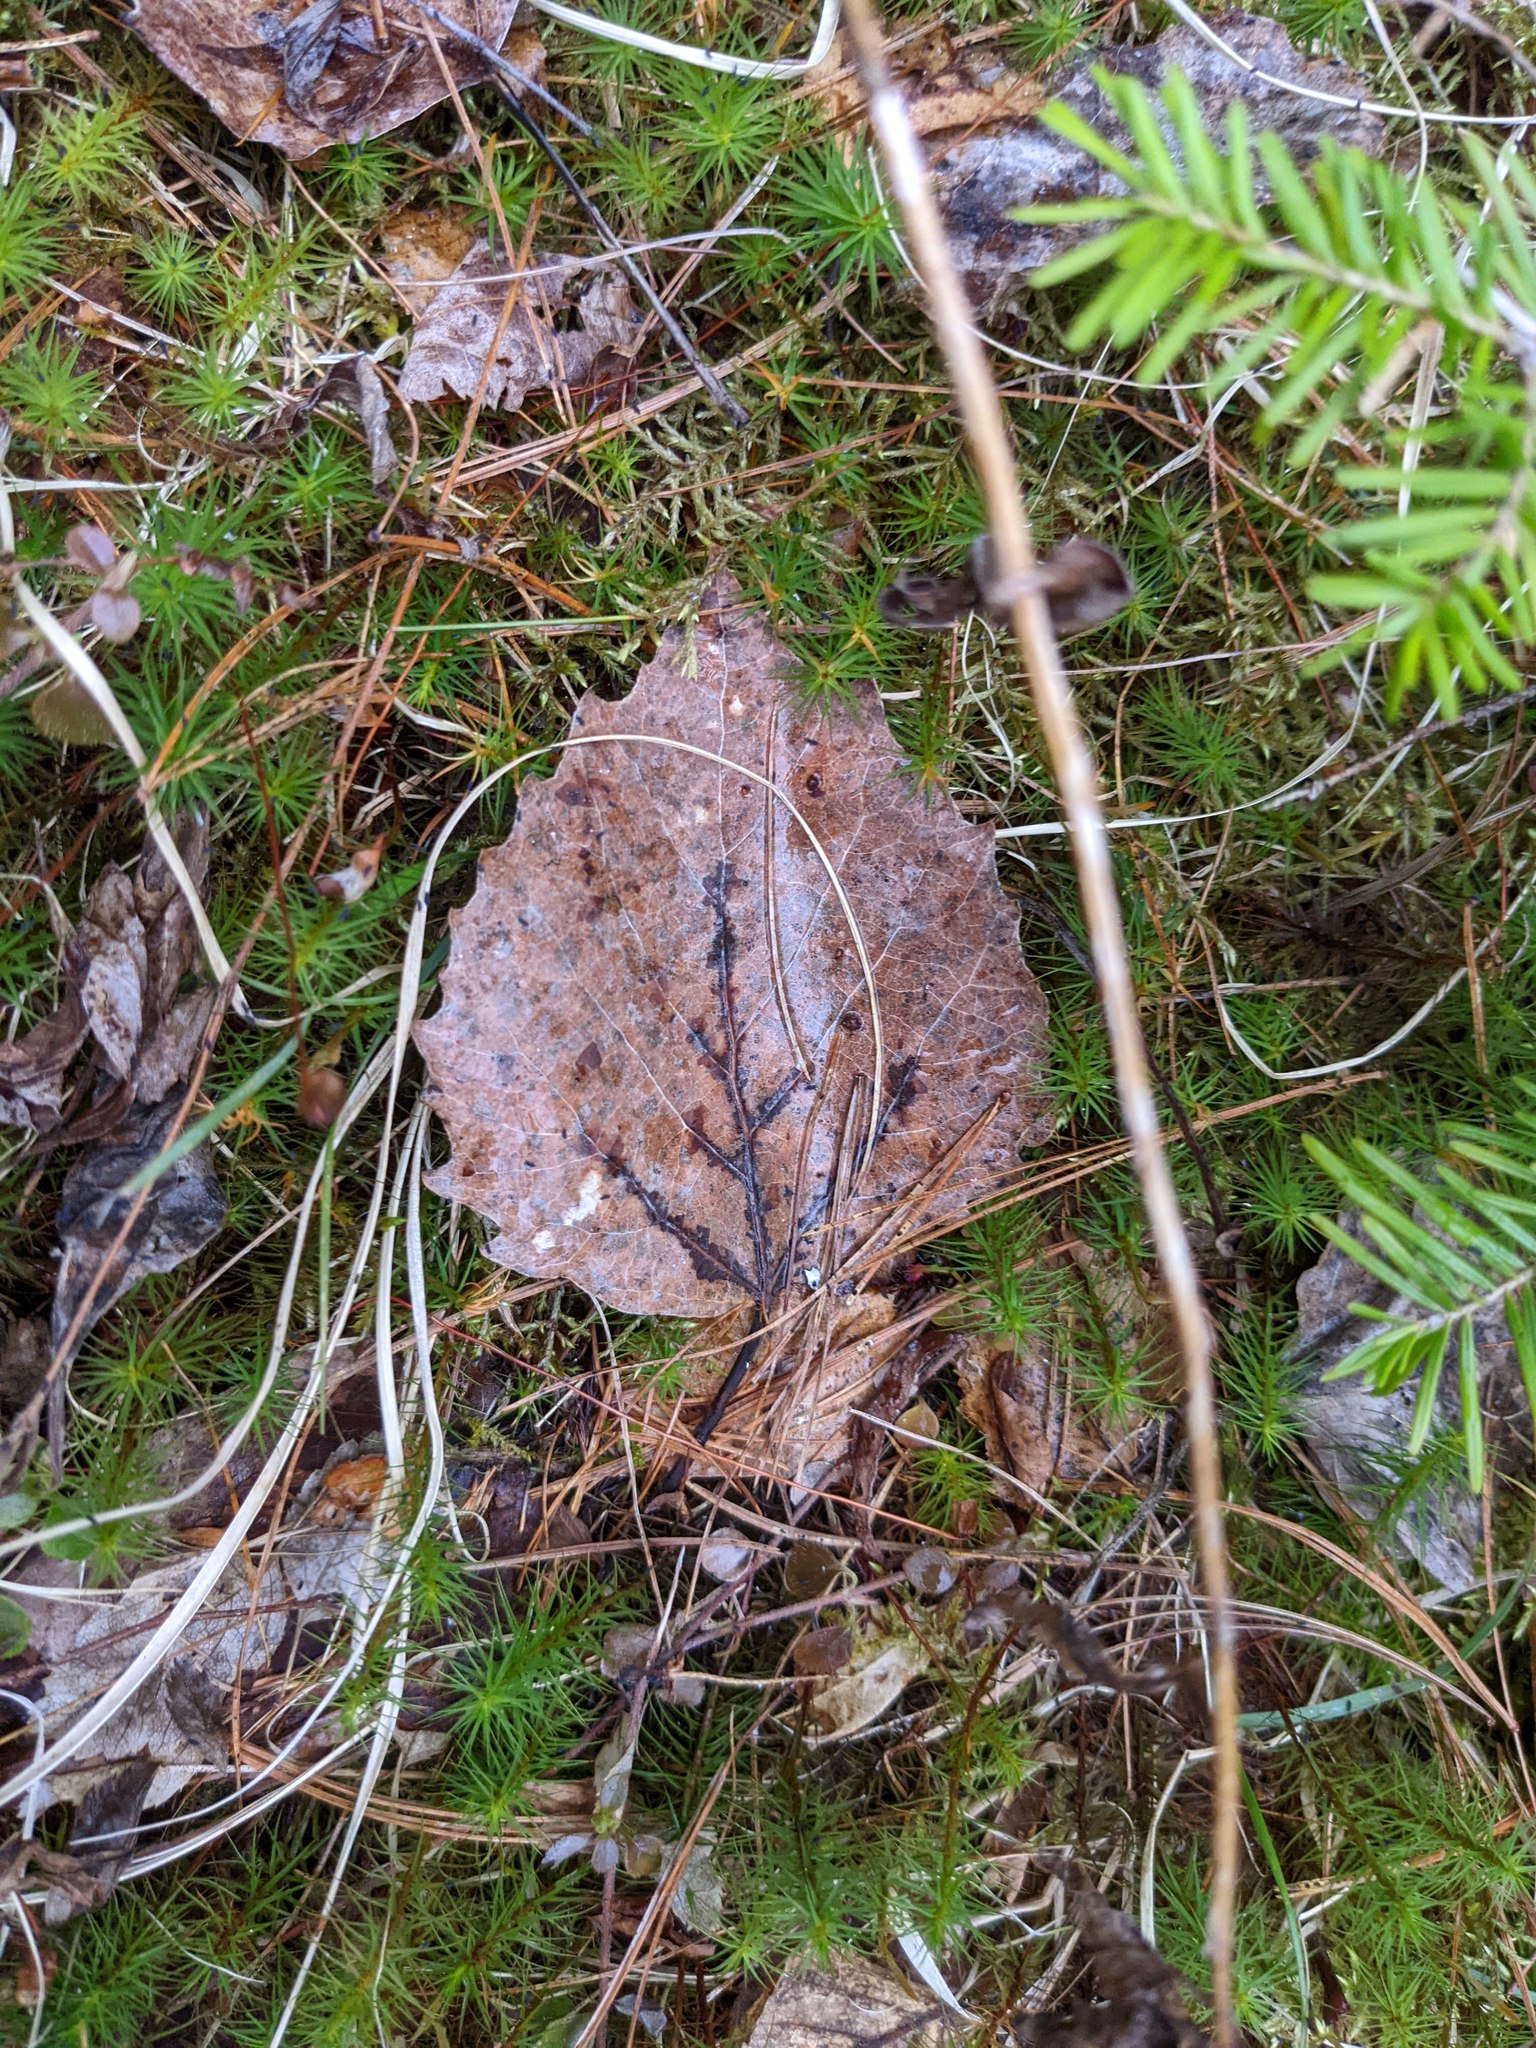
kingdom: Plantae
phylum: Tracheophyta
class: Magnoliopsida
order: Malpighiales
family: Salicaceae
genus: Populus
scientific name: Populus grandidentata
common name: Bigtooth aspen
